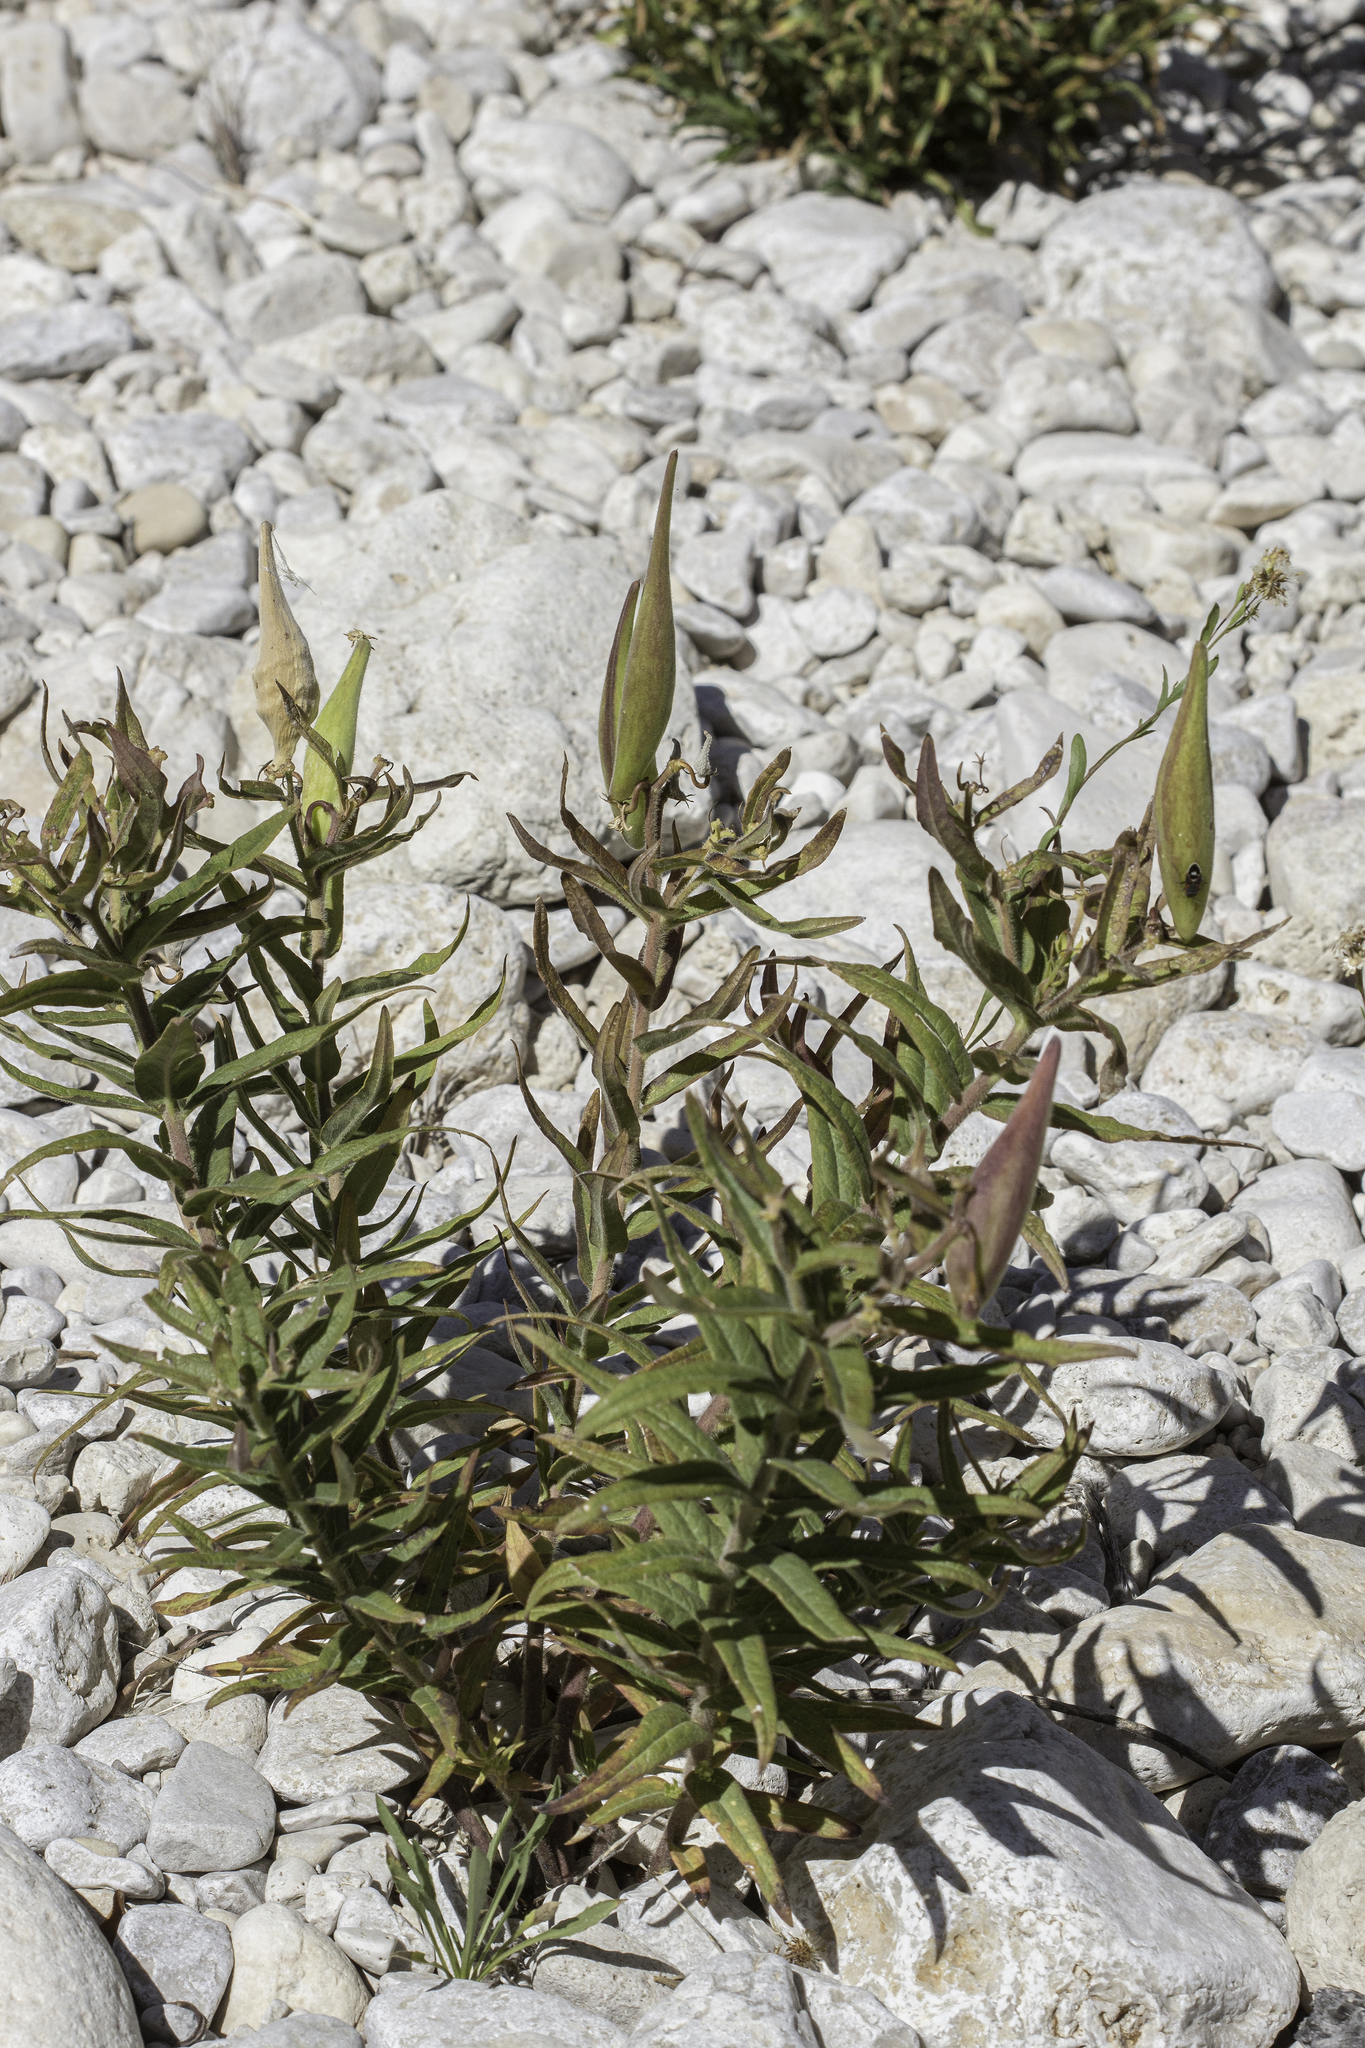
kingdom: Plantae
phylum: Tracheophyta
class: Magnoliopsida
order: Gentianales
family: Apocynaceae
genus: Asclepias
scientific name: Asclepias tuberosa
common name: Butterfly milkweed
